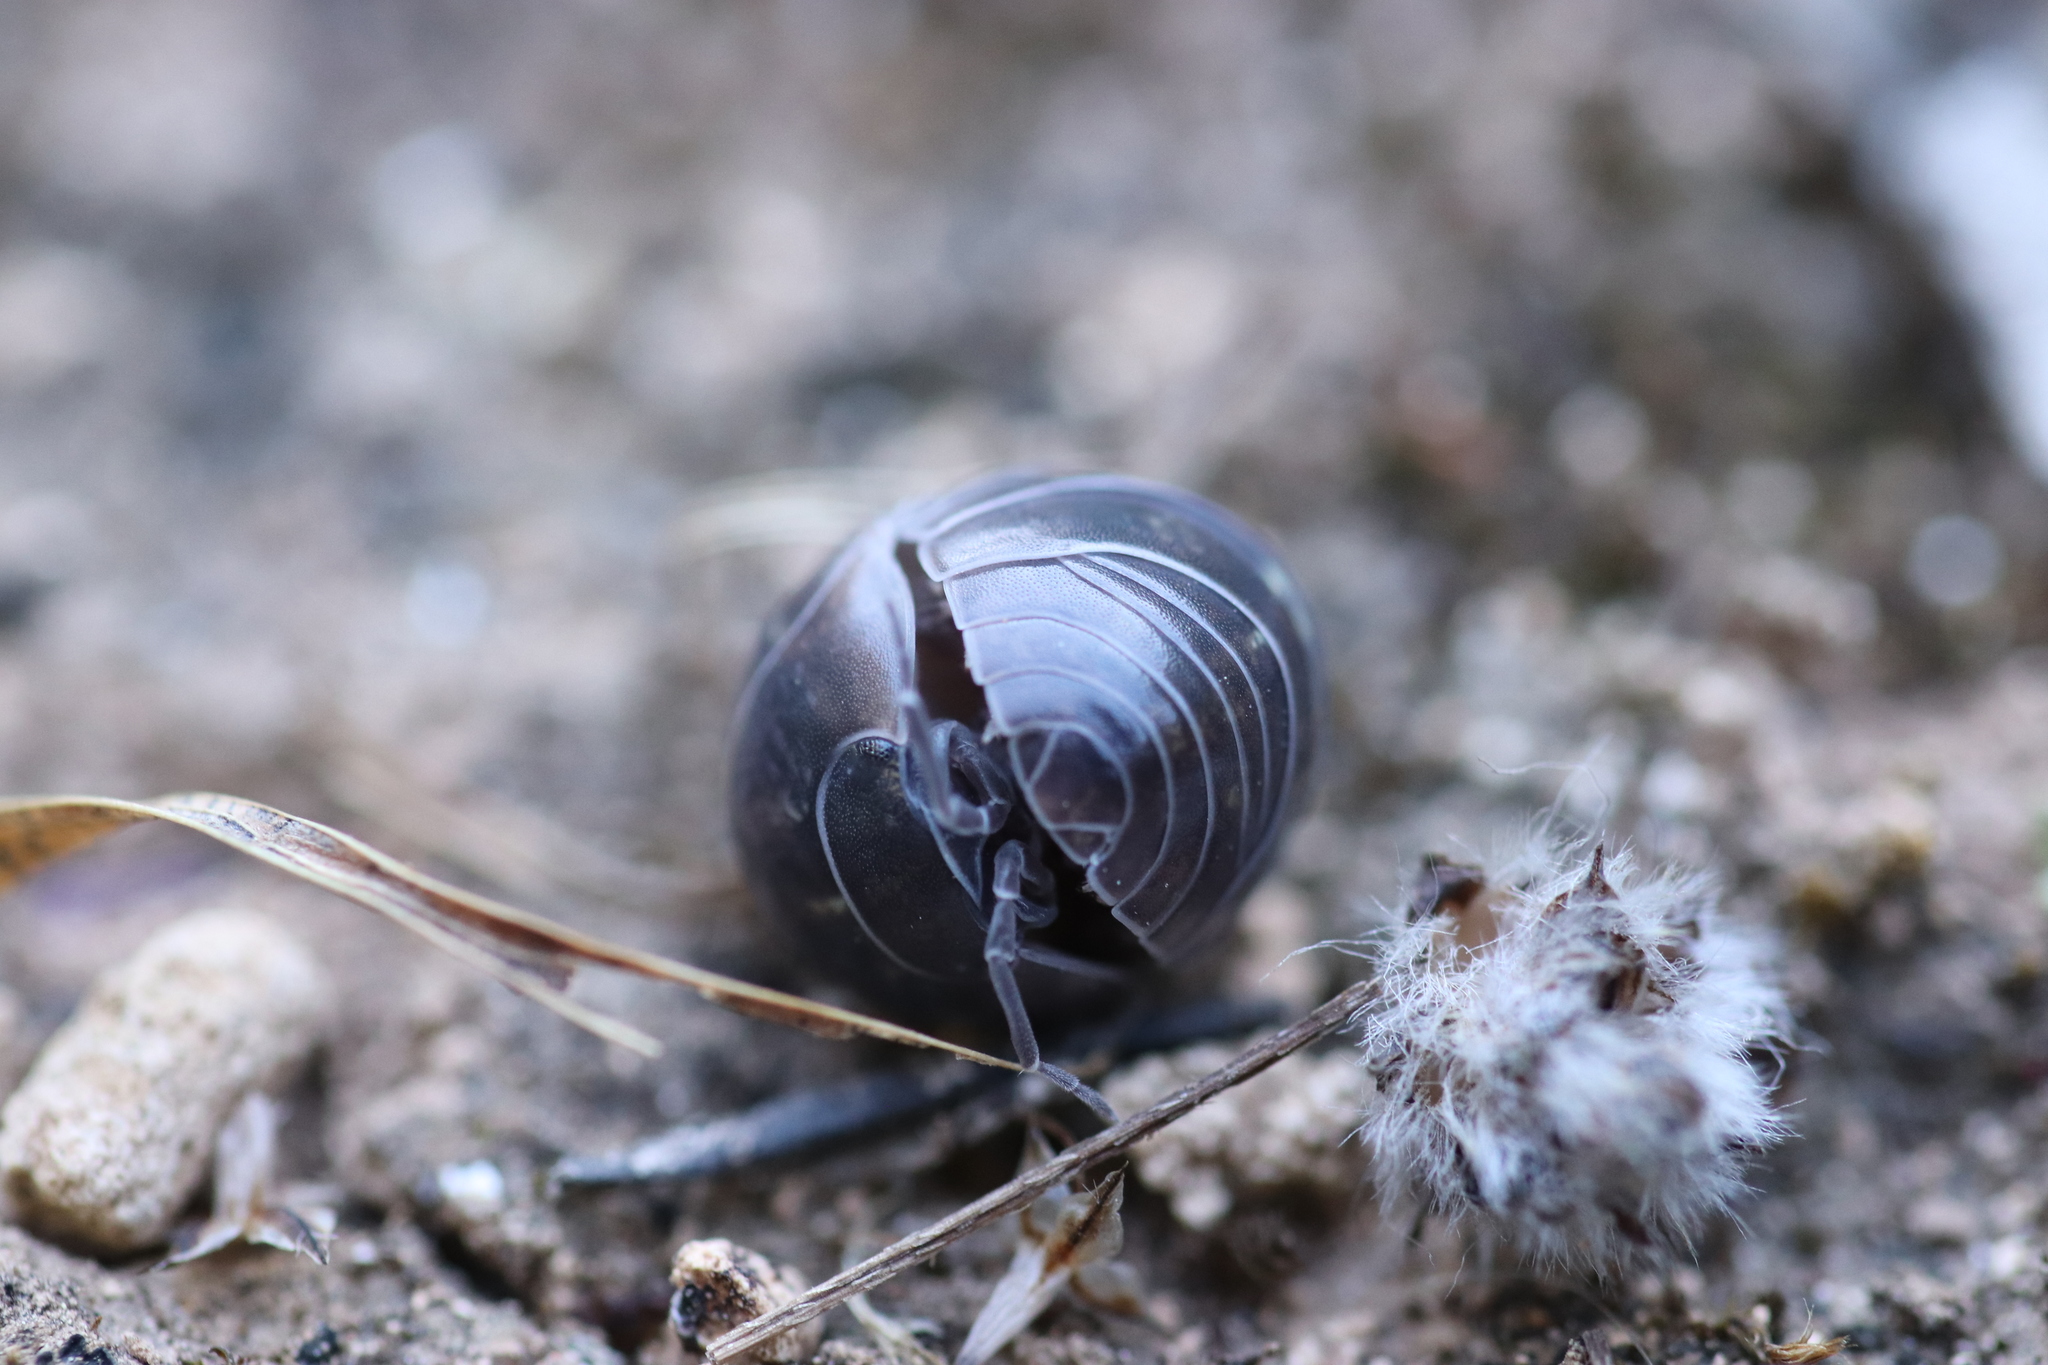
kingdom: Animalia
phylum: Arthropoda
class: Malacostraca
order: Isopoda
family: Armadillidiidae
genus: Armadillidium
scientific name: Armadillidium vulgare
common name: Common pill woodlouse
